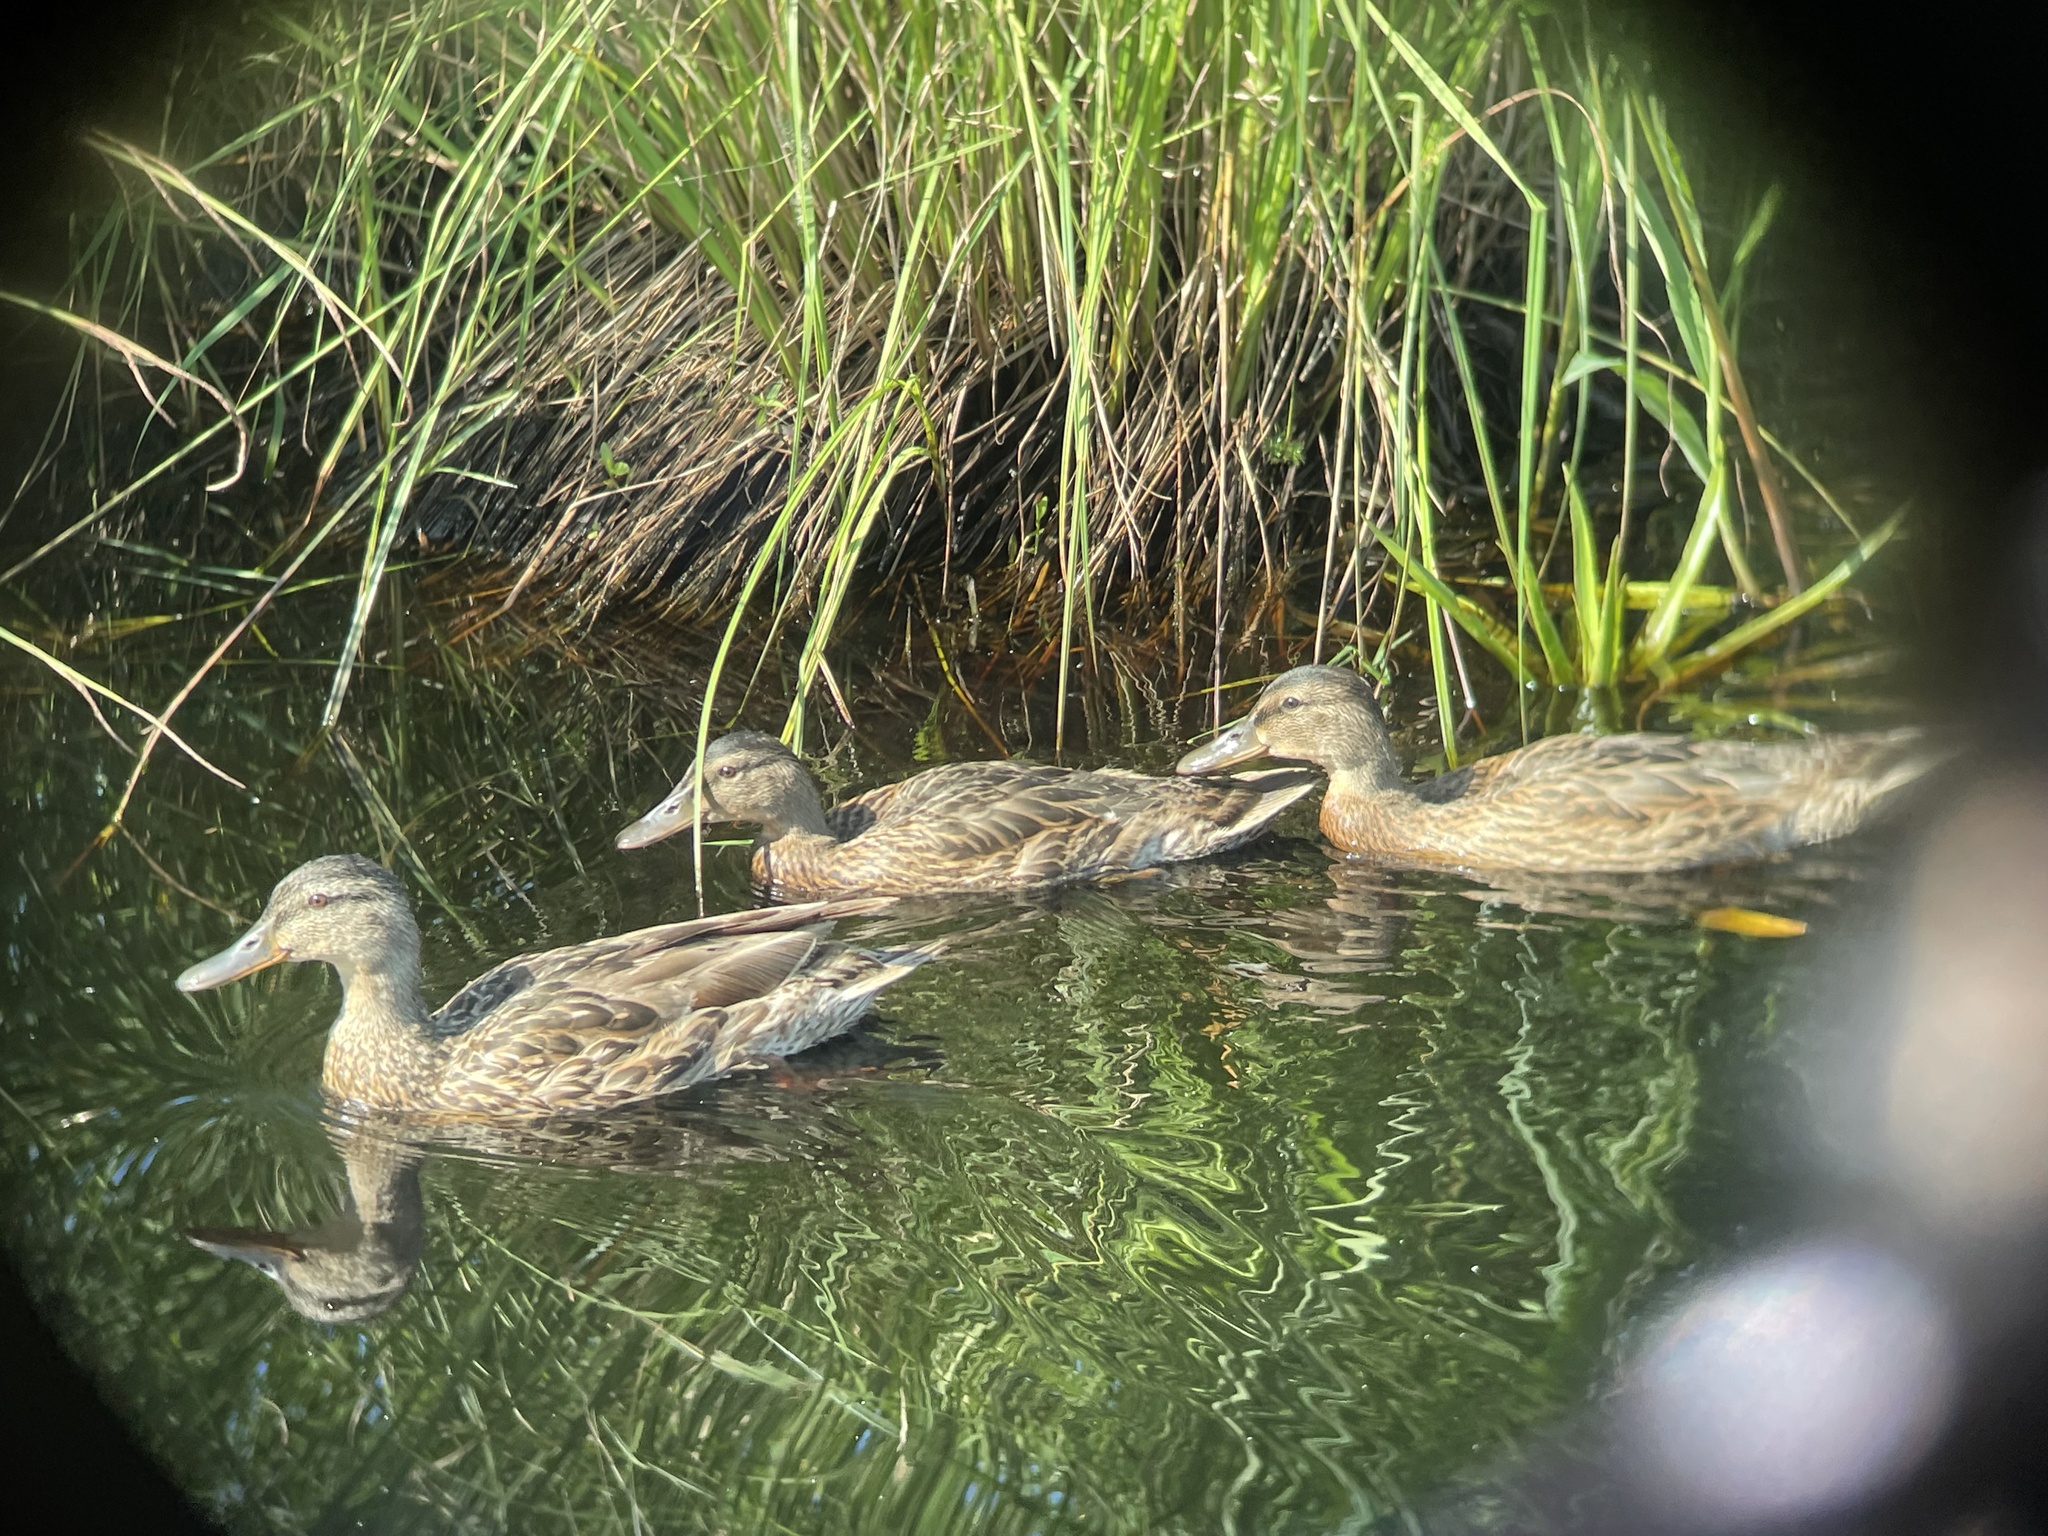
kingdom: Animalia
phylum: Chordata
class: Aves
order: Anseriformes
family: Anatidae
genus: Anas
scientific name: Anas platyrhynchos
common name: Mallard
